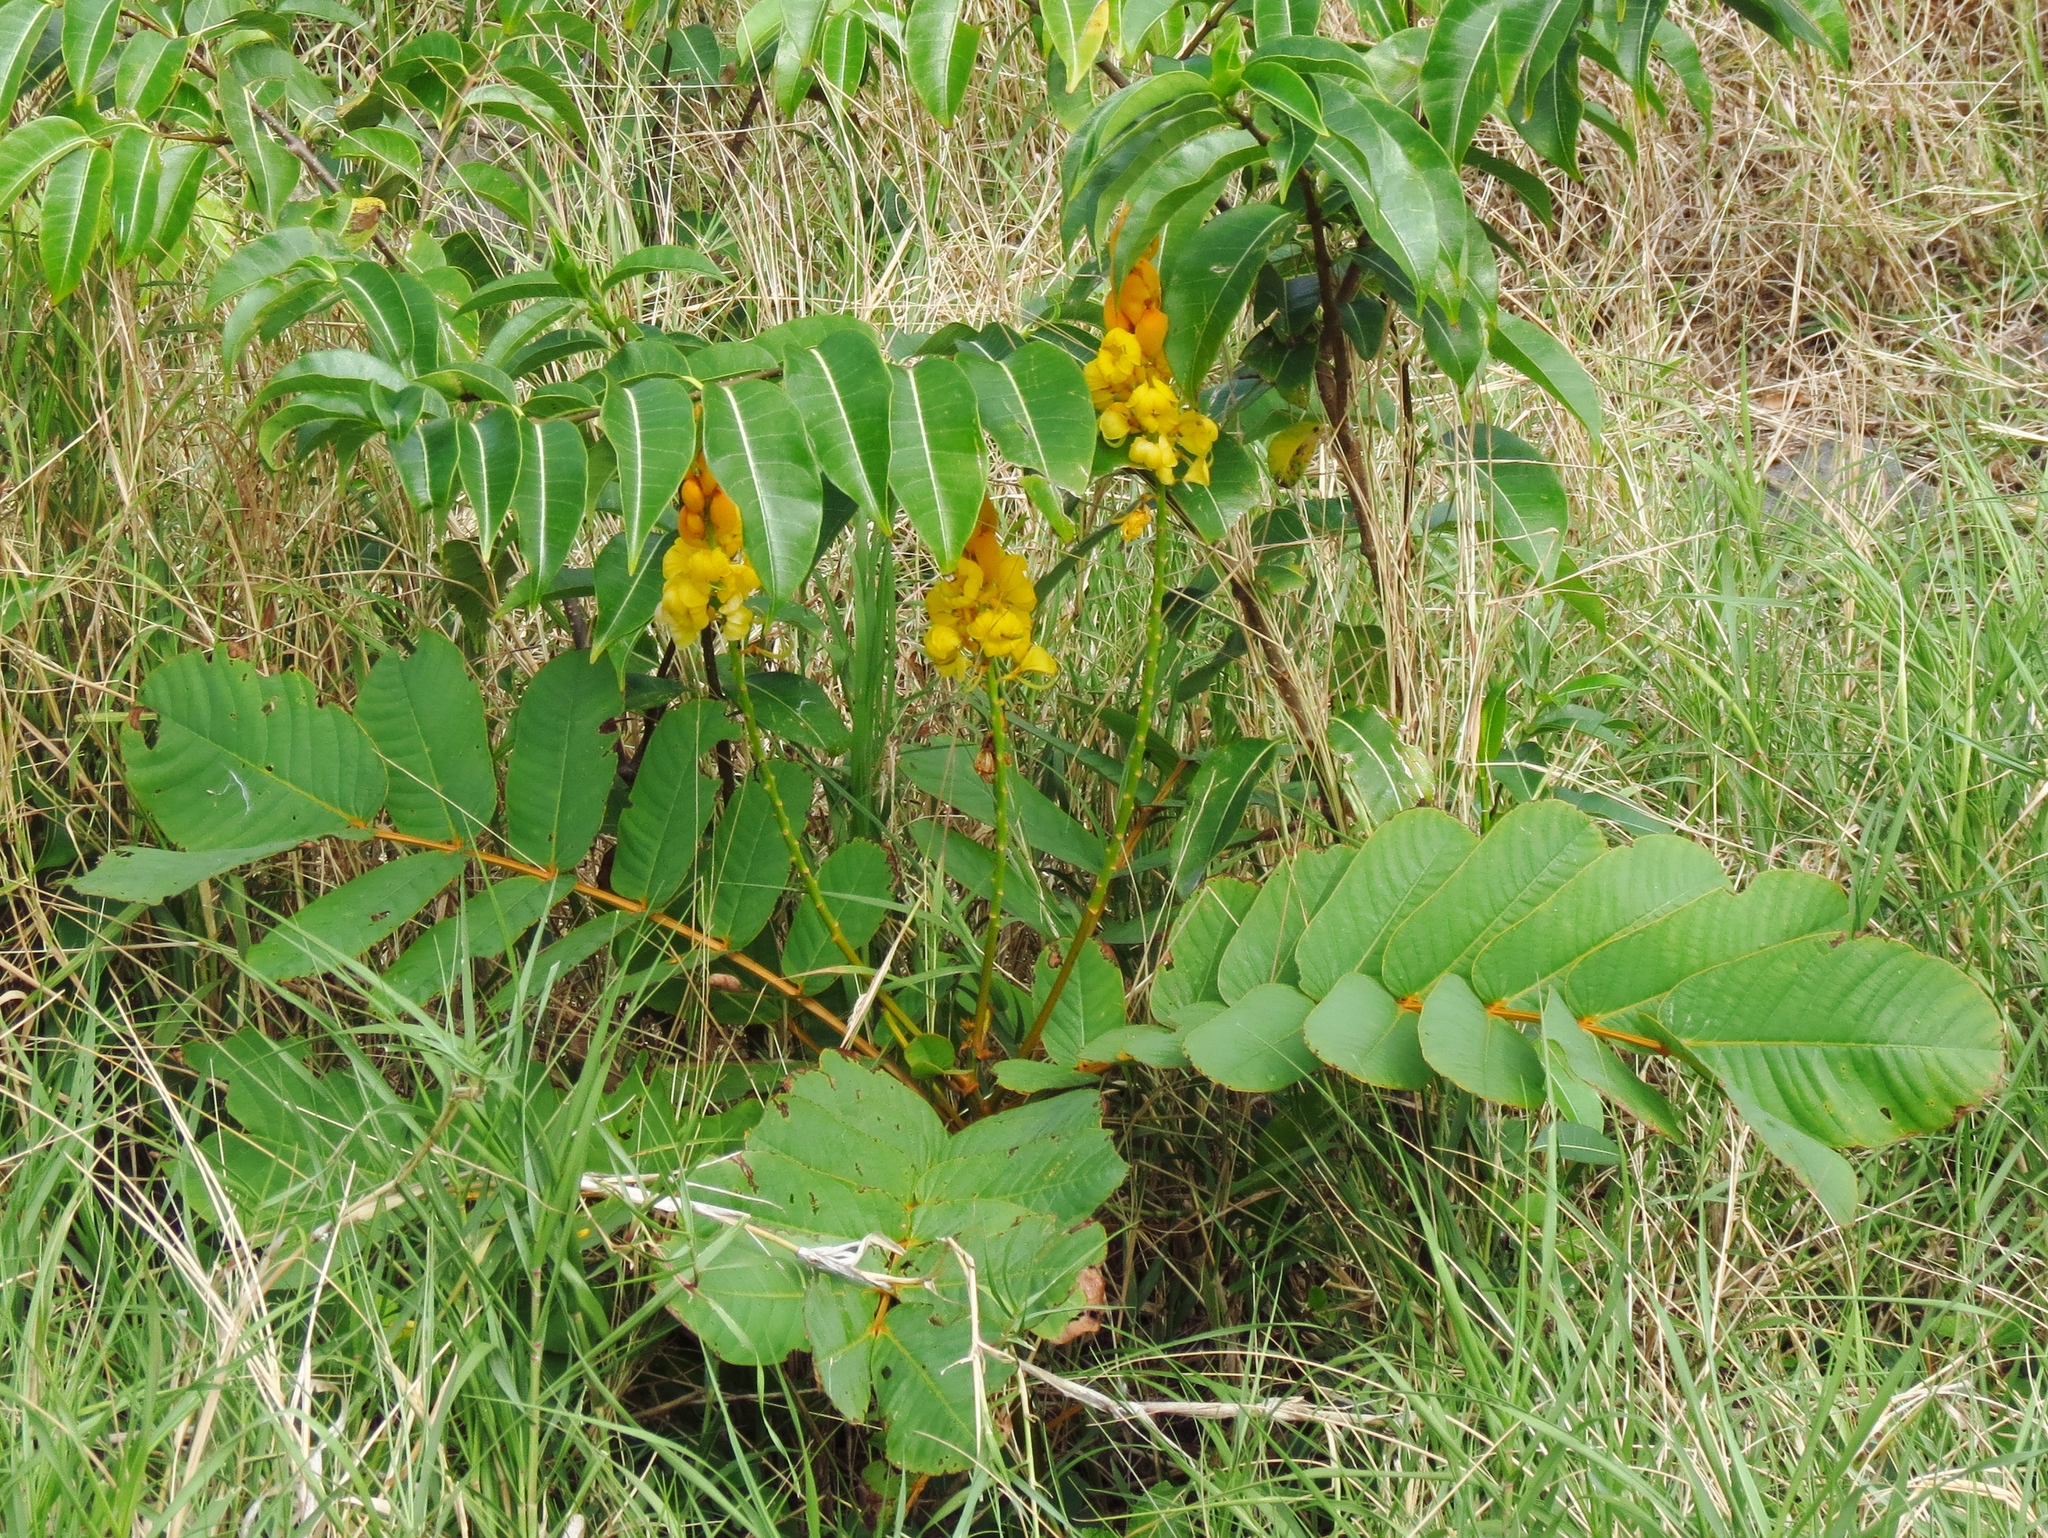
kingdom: Plantae
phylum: Tracheophyta
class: Magnoliopsida
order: Fabales
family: Fabaceae
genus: Senna
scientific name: Senna alata
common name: Emperor's candlesticks
